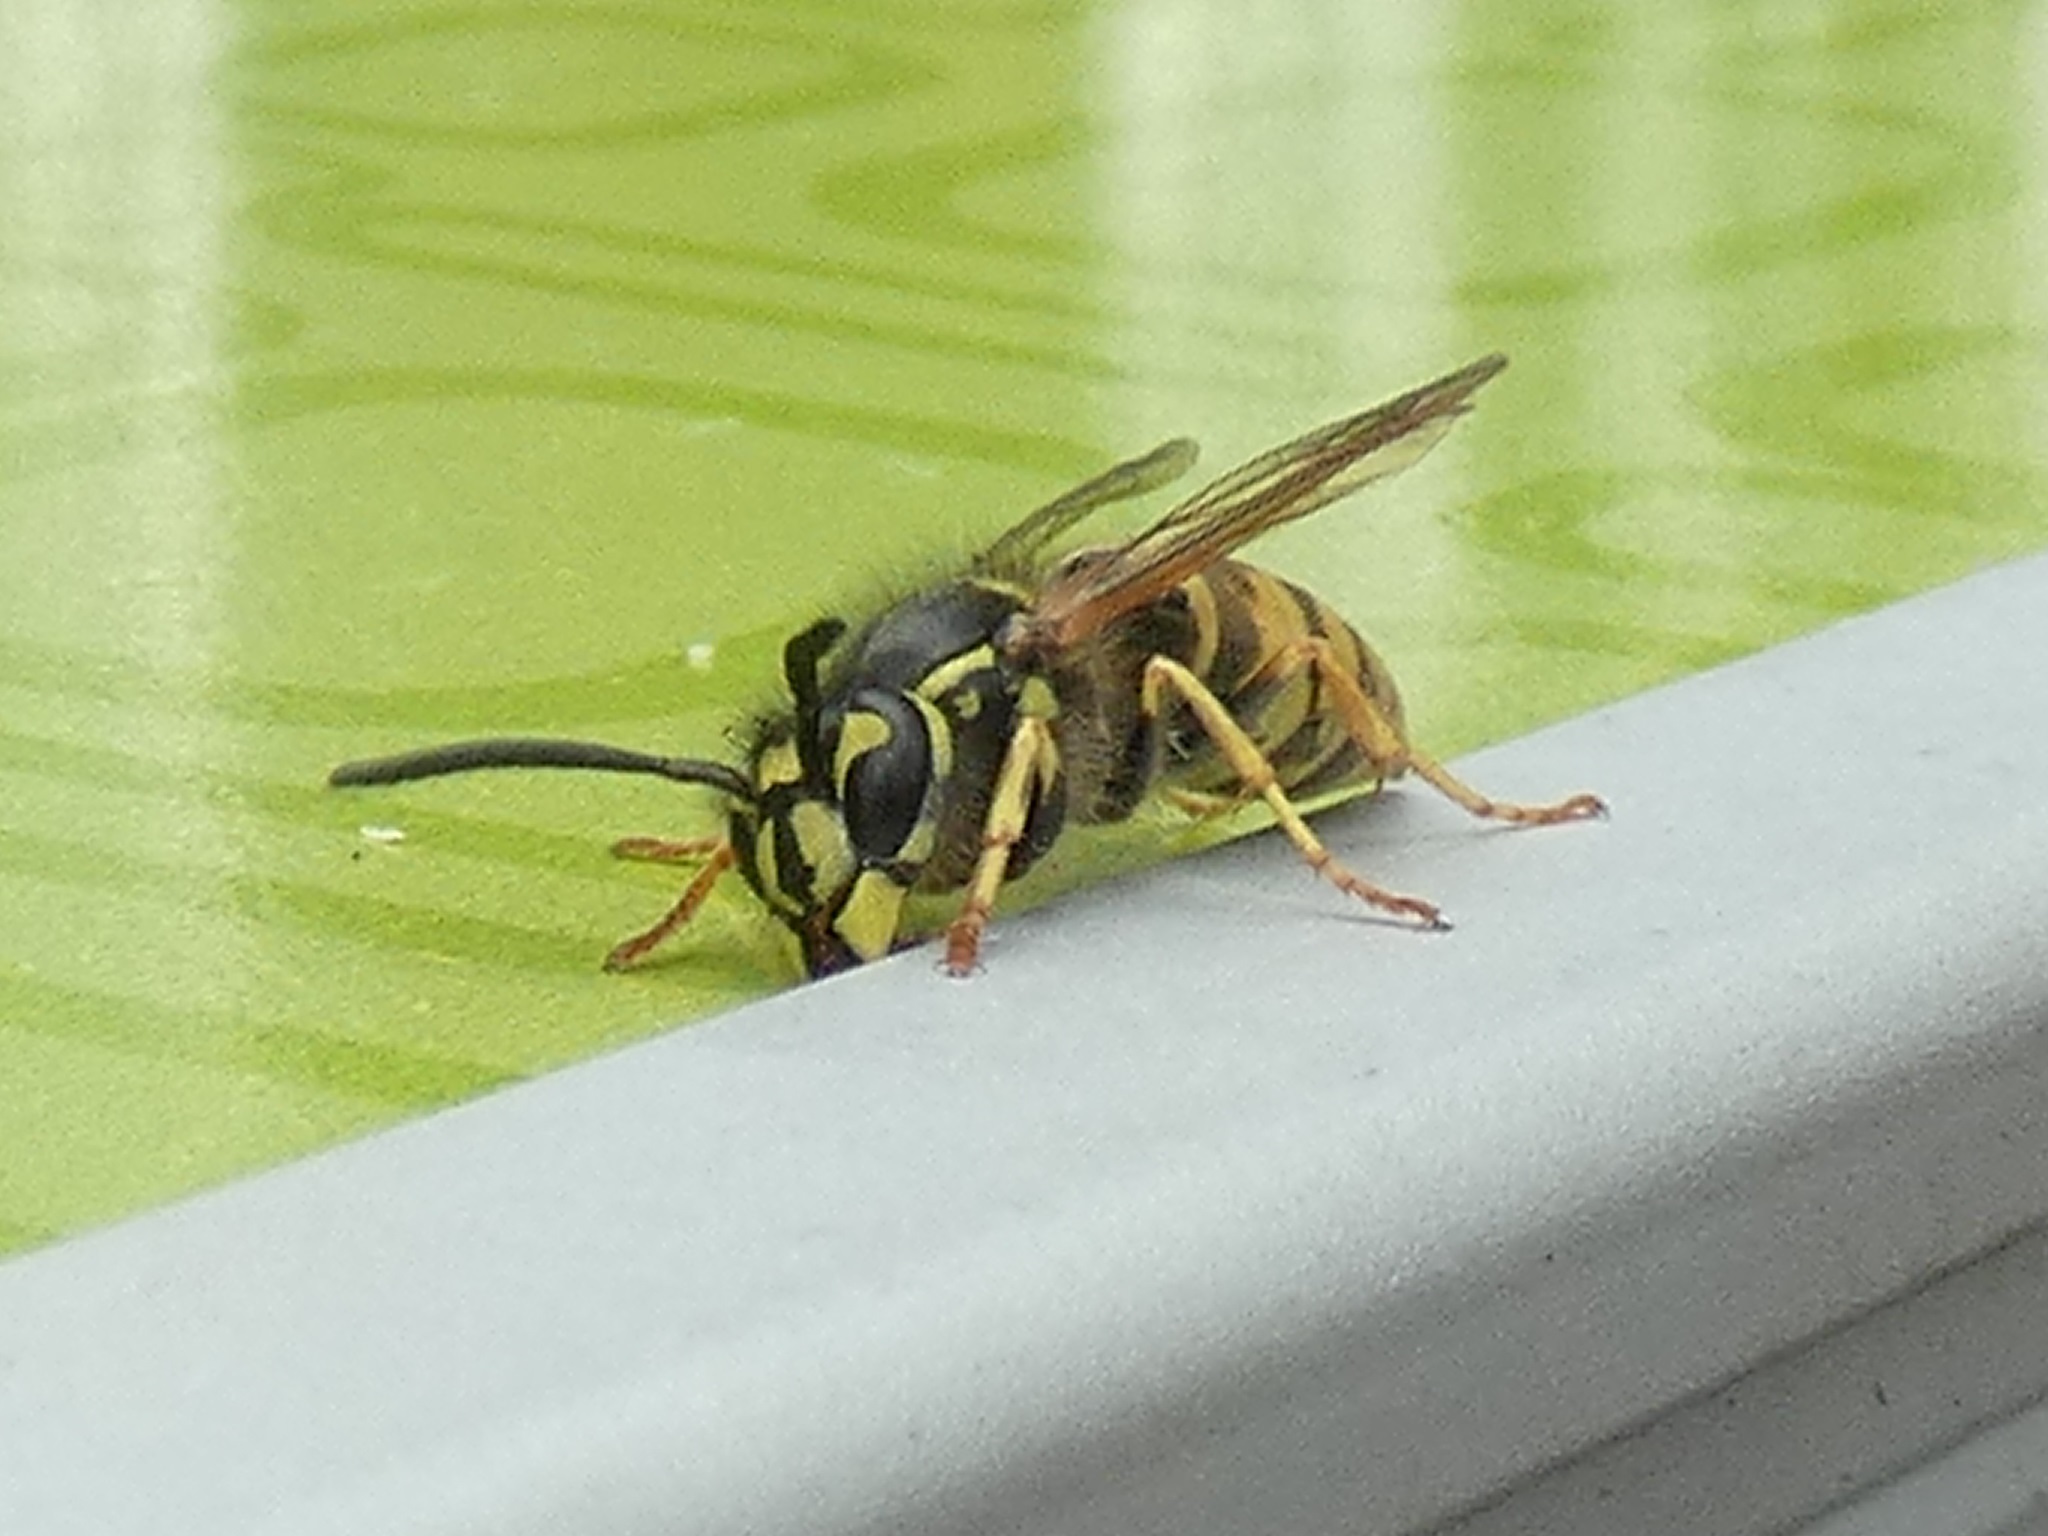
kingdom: Animalia
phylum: Arthropoda
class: Insecta
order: Hymenoptera
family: Vespidae
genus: Vespula
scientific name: Vespula vulgaris
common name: Common wasp
